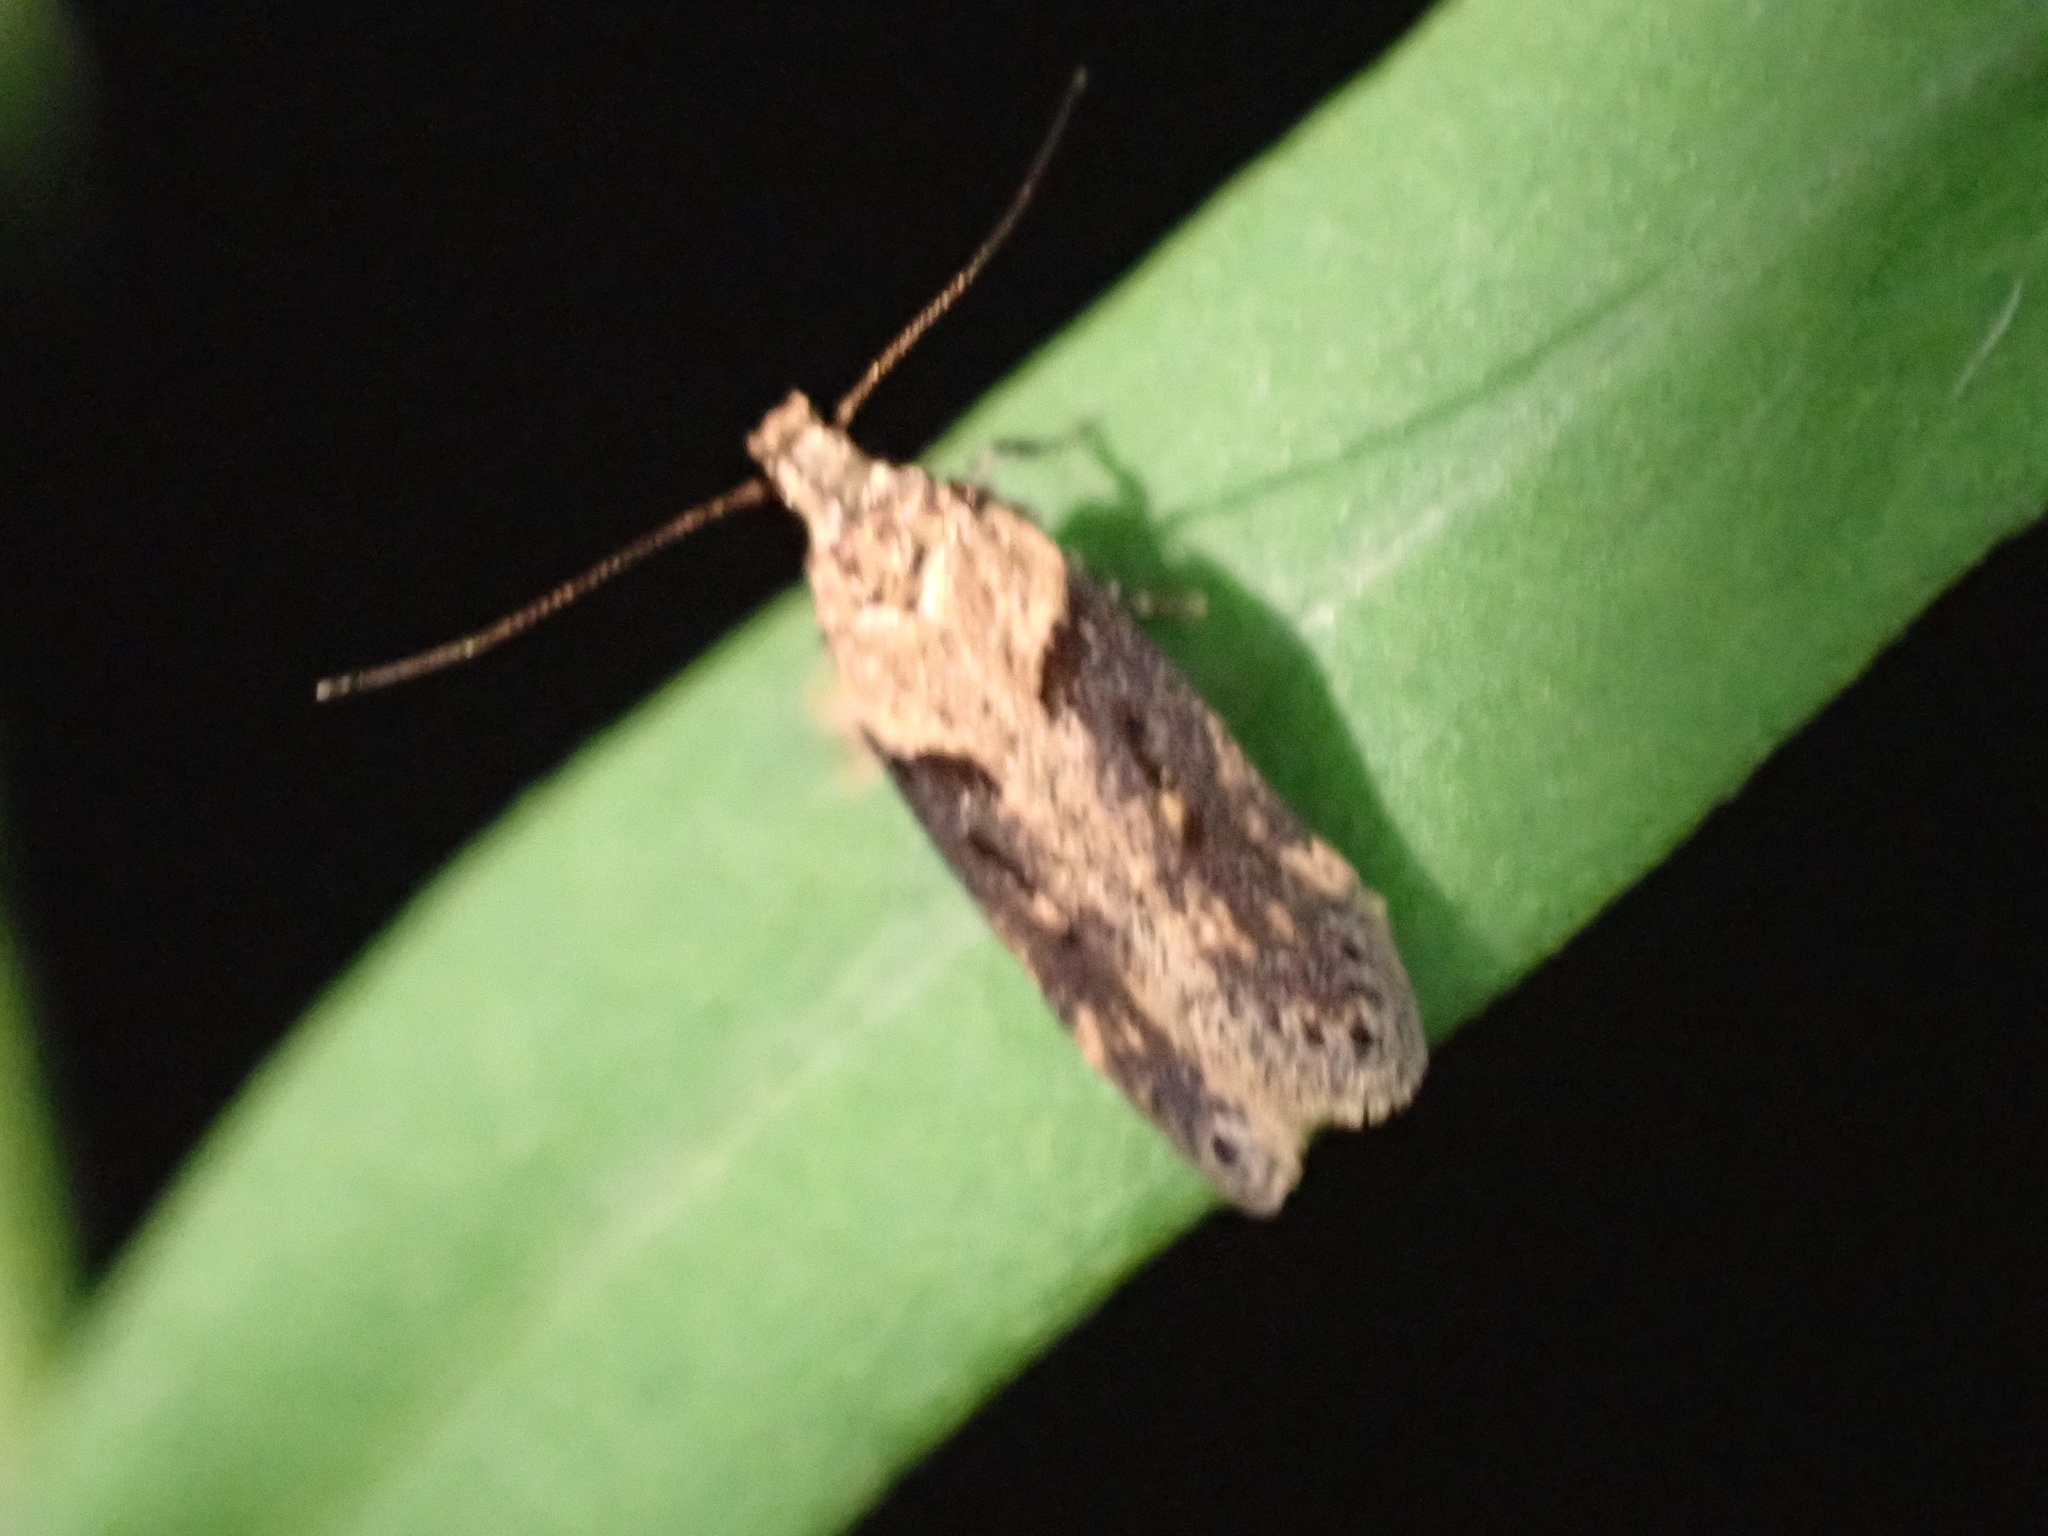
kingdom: Animalia
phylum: Arthropoda
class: Insecta
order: Lepidoptera
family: Gelechiidae
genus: Chionodes
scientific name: Chionodes mediofuscella
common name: Black-smudged chionodes moth
